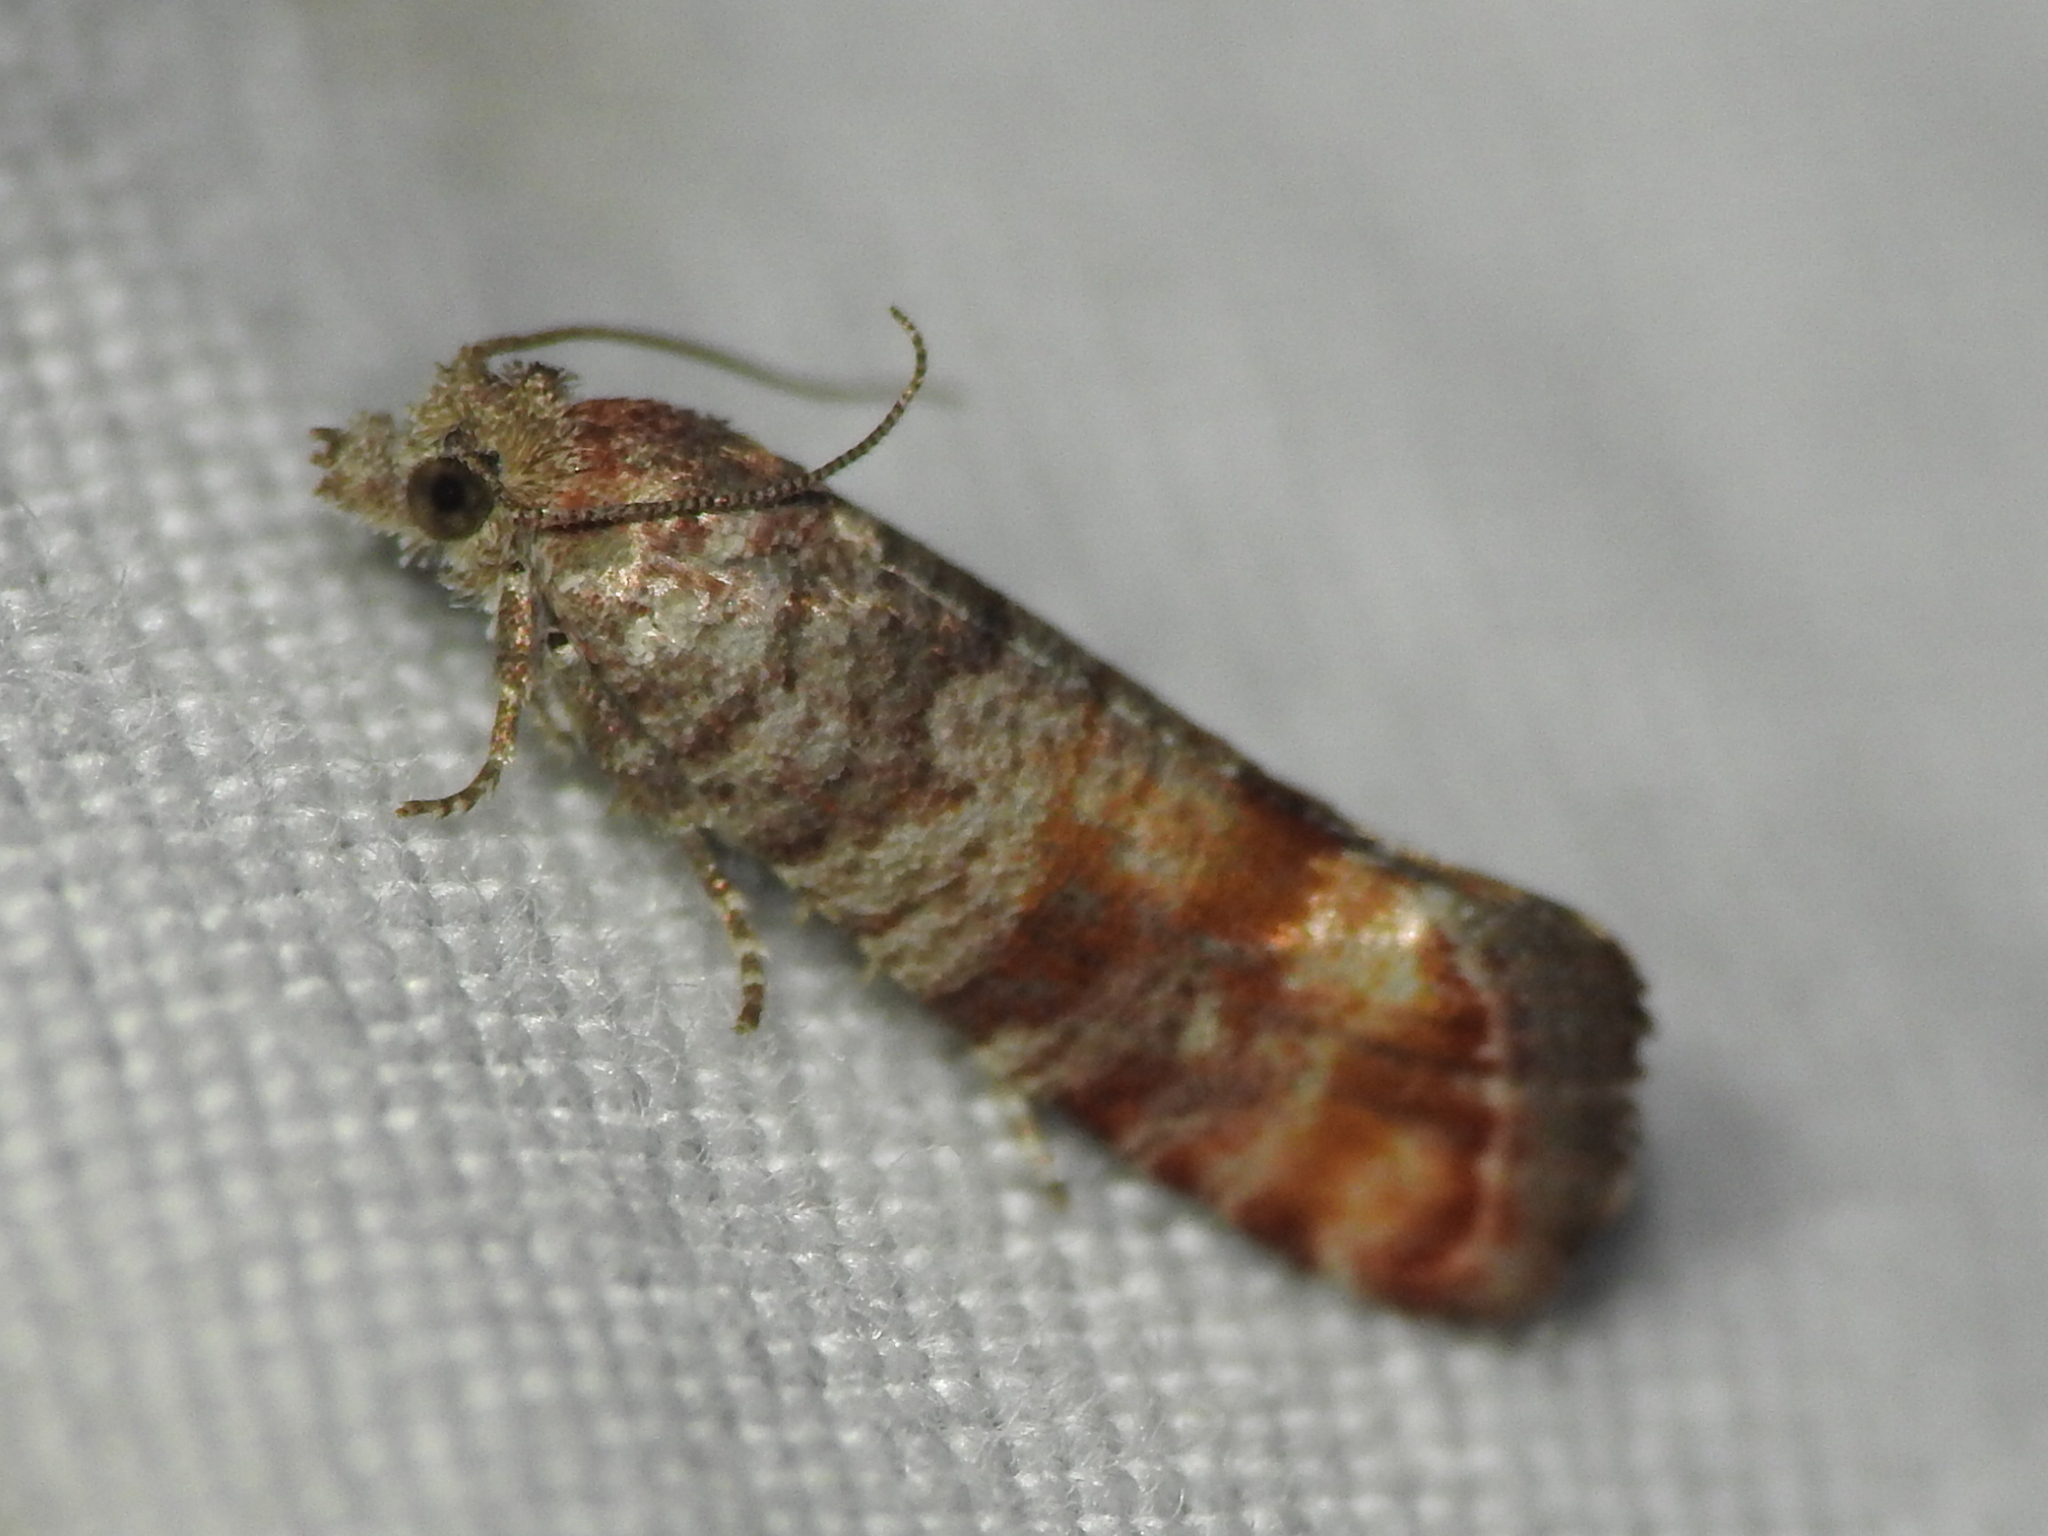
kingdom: Animalia
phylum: Arthropoda
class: Insecta
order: Lepidoptera
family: Tortricidae
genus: Rhyacionia
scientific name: Rhyacionia rigidana
